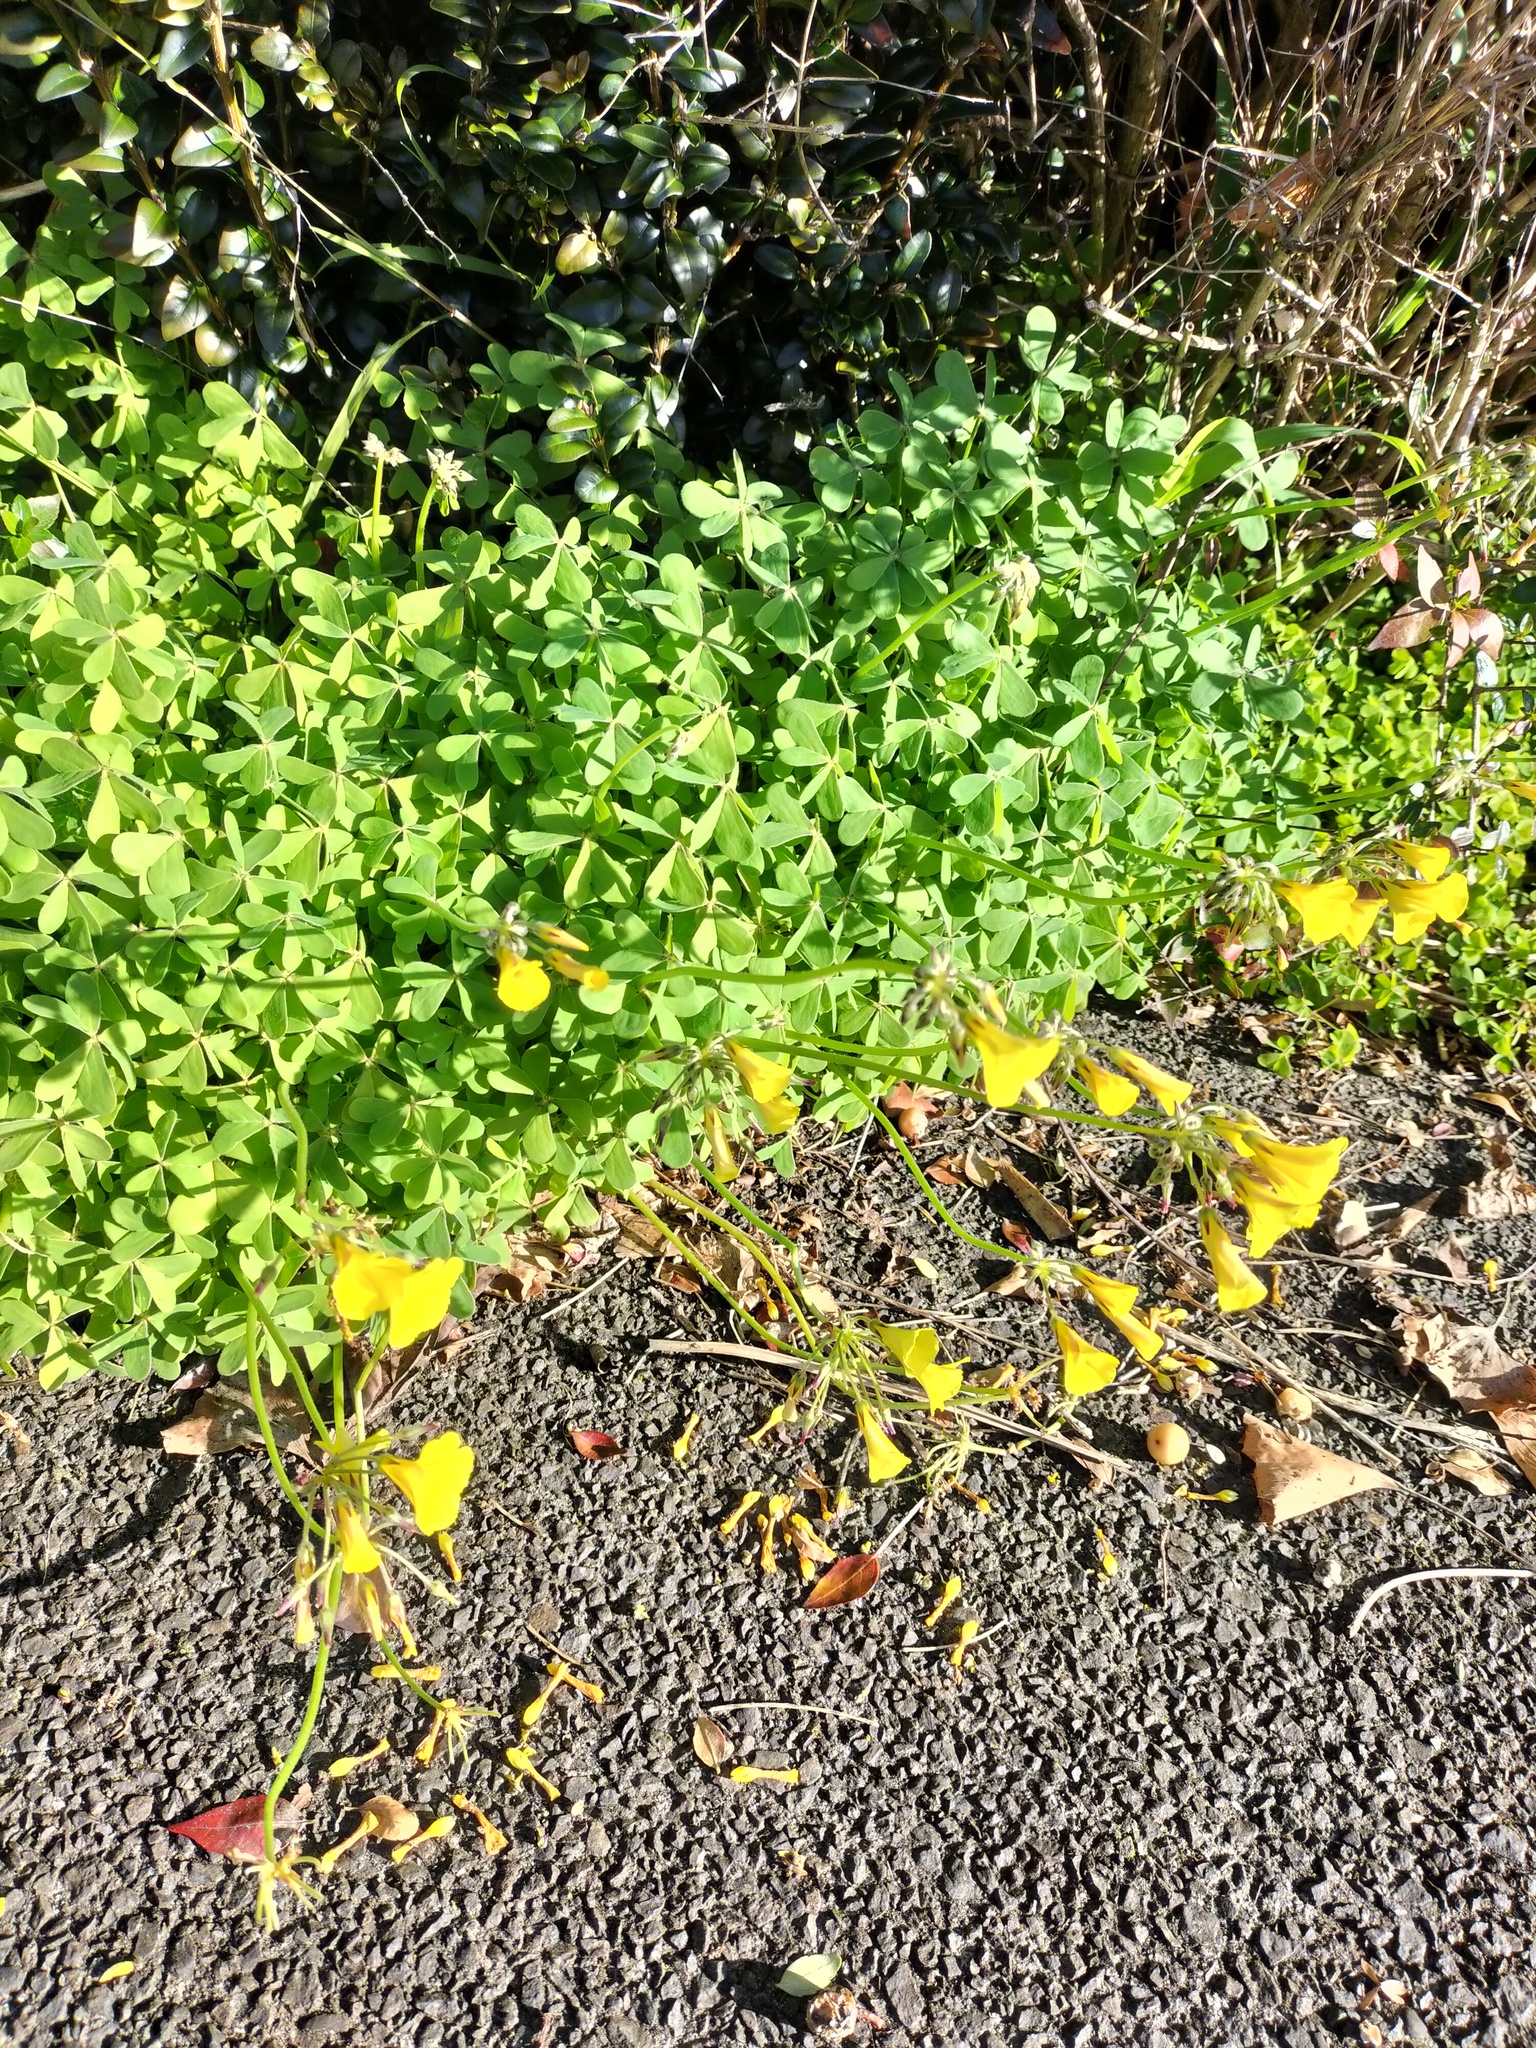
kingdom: Plantae
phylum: Tracheophyta
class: Magnoliopsida
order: Oxalidales
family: Oxalidaceae
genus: Oxalis
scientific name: Oxalis pes-caprae
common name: Bermuda-buttercup
